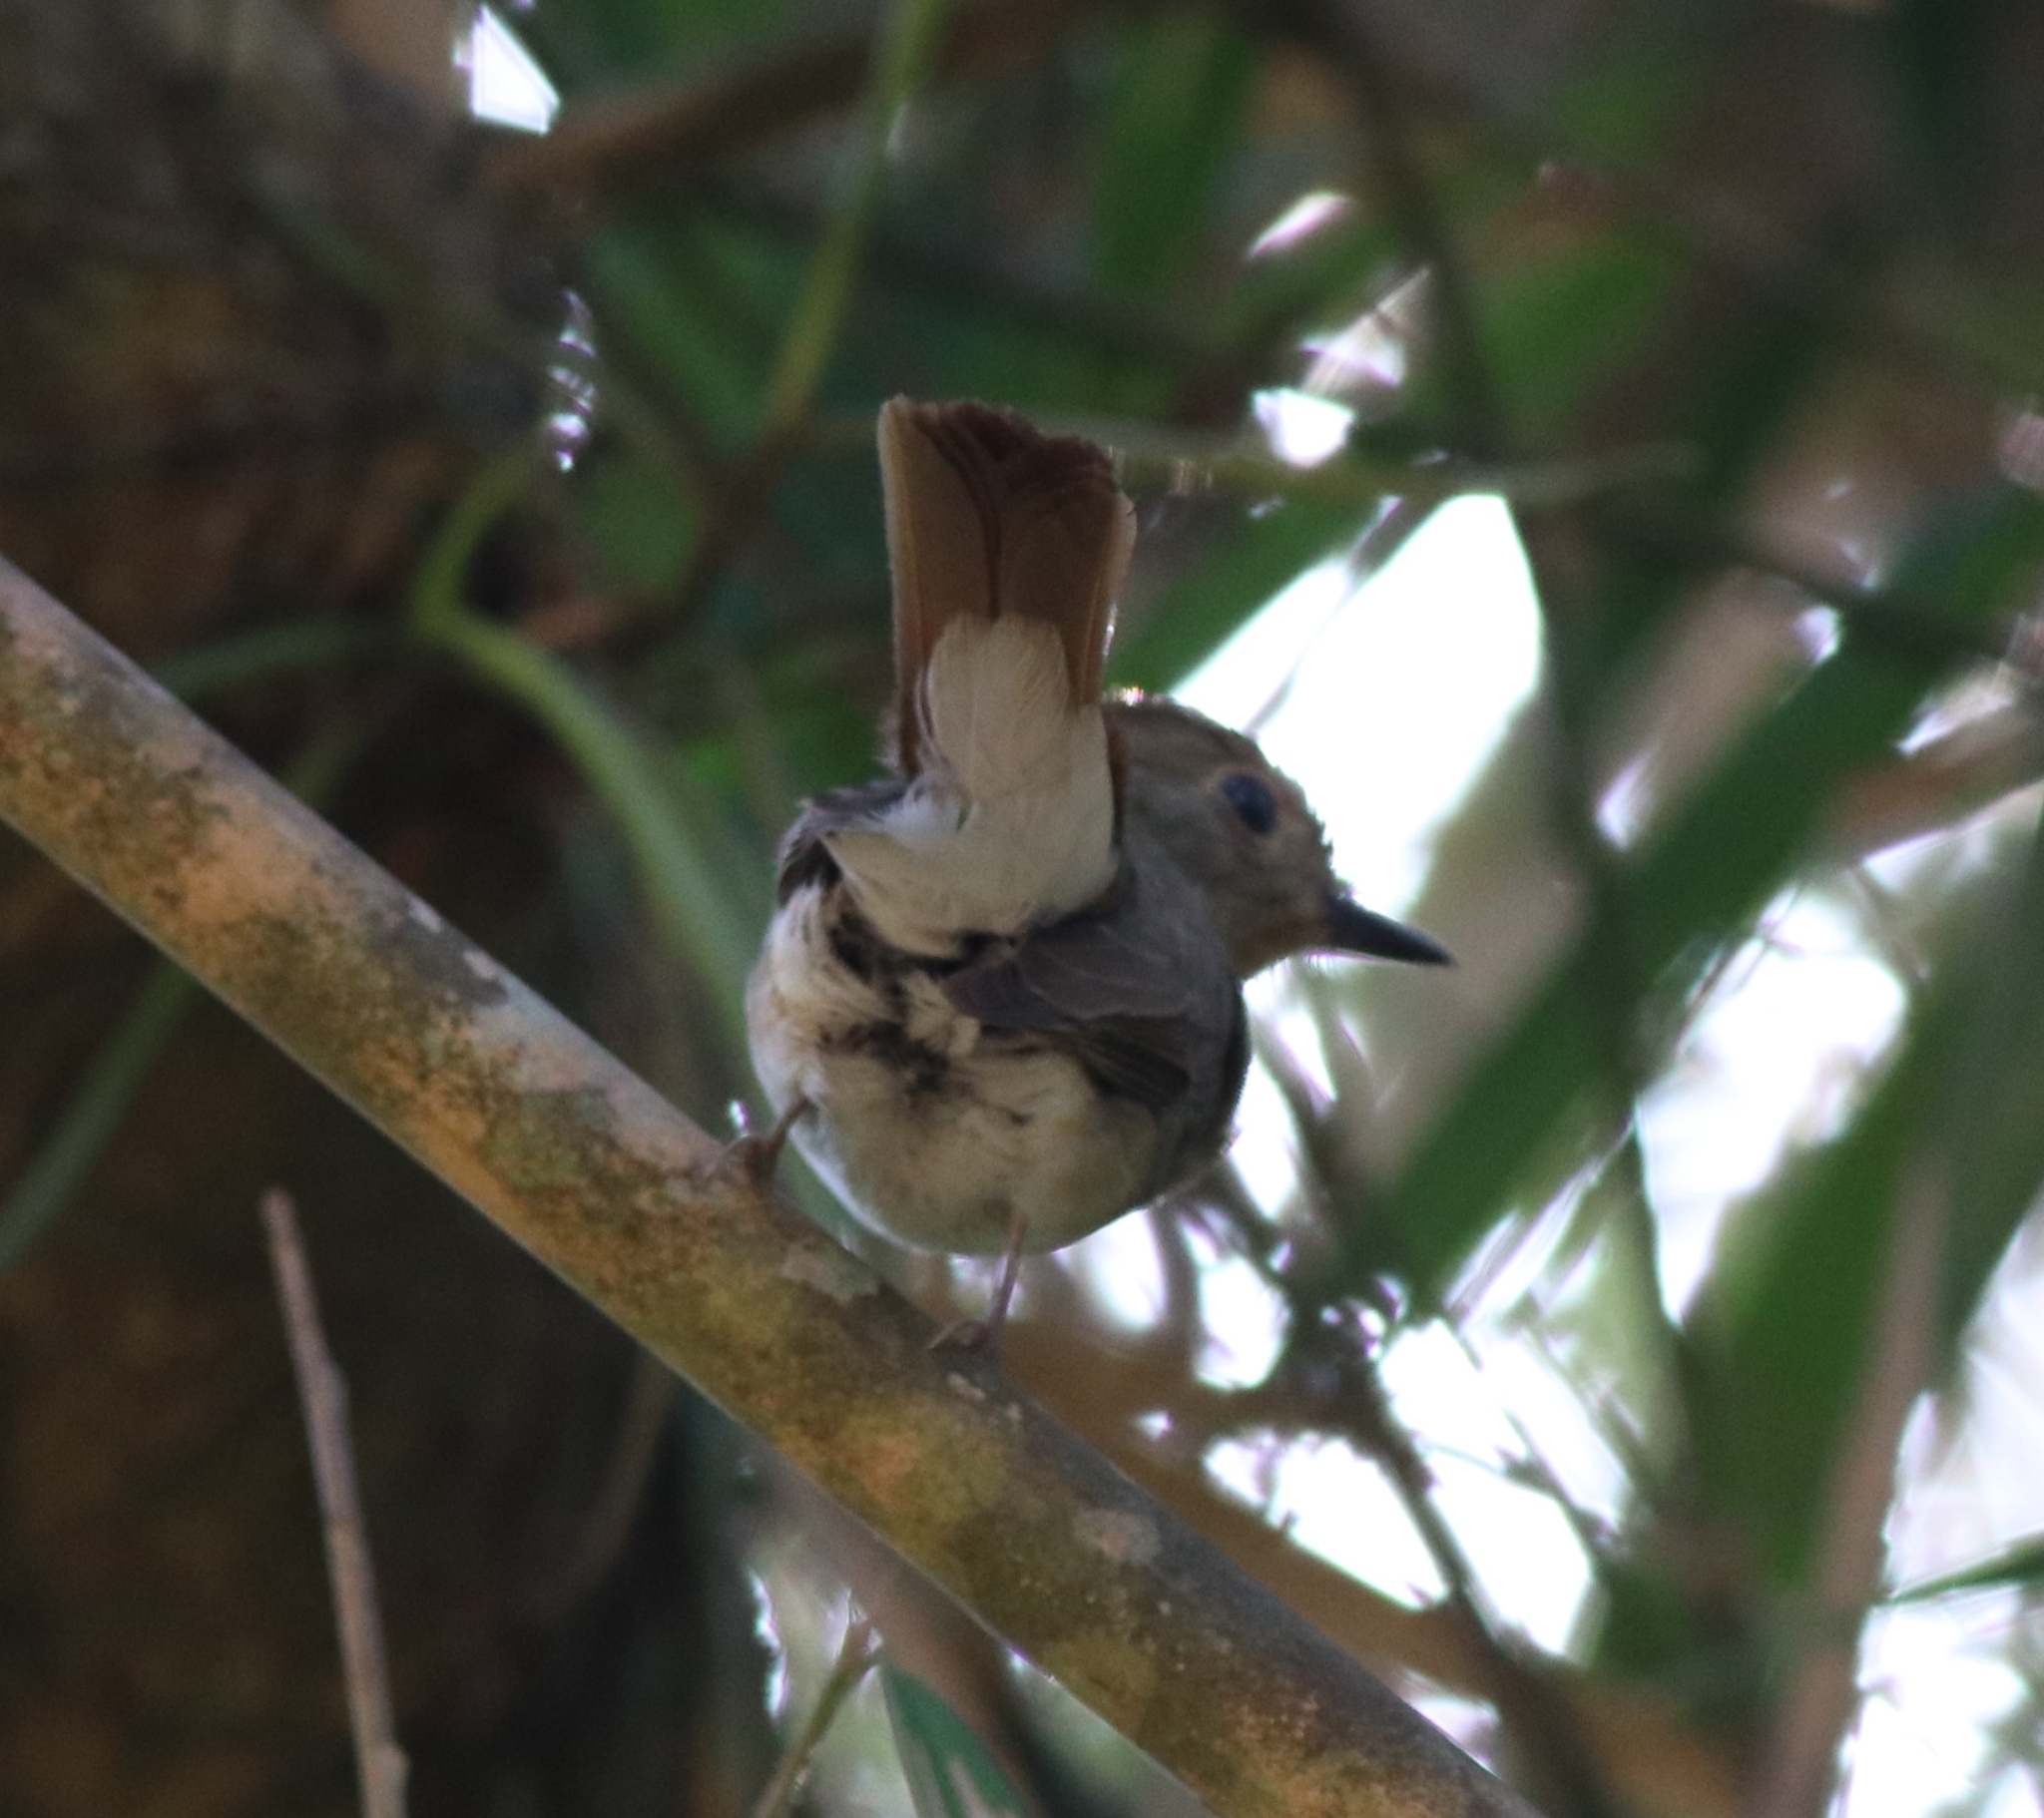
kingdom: Animalia
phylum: Chordata
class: Aves
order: Passeriformes
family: Muscicapidae
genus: Cyornis
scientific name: Cyornis rubeculoides
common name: Blue-throated blue flycatcher
